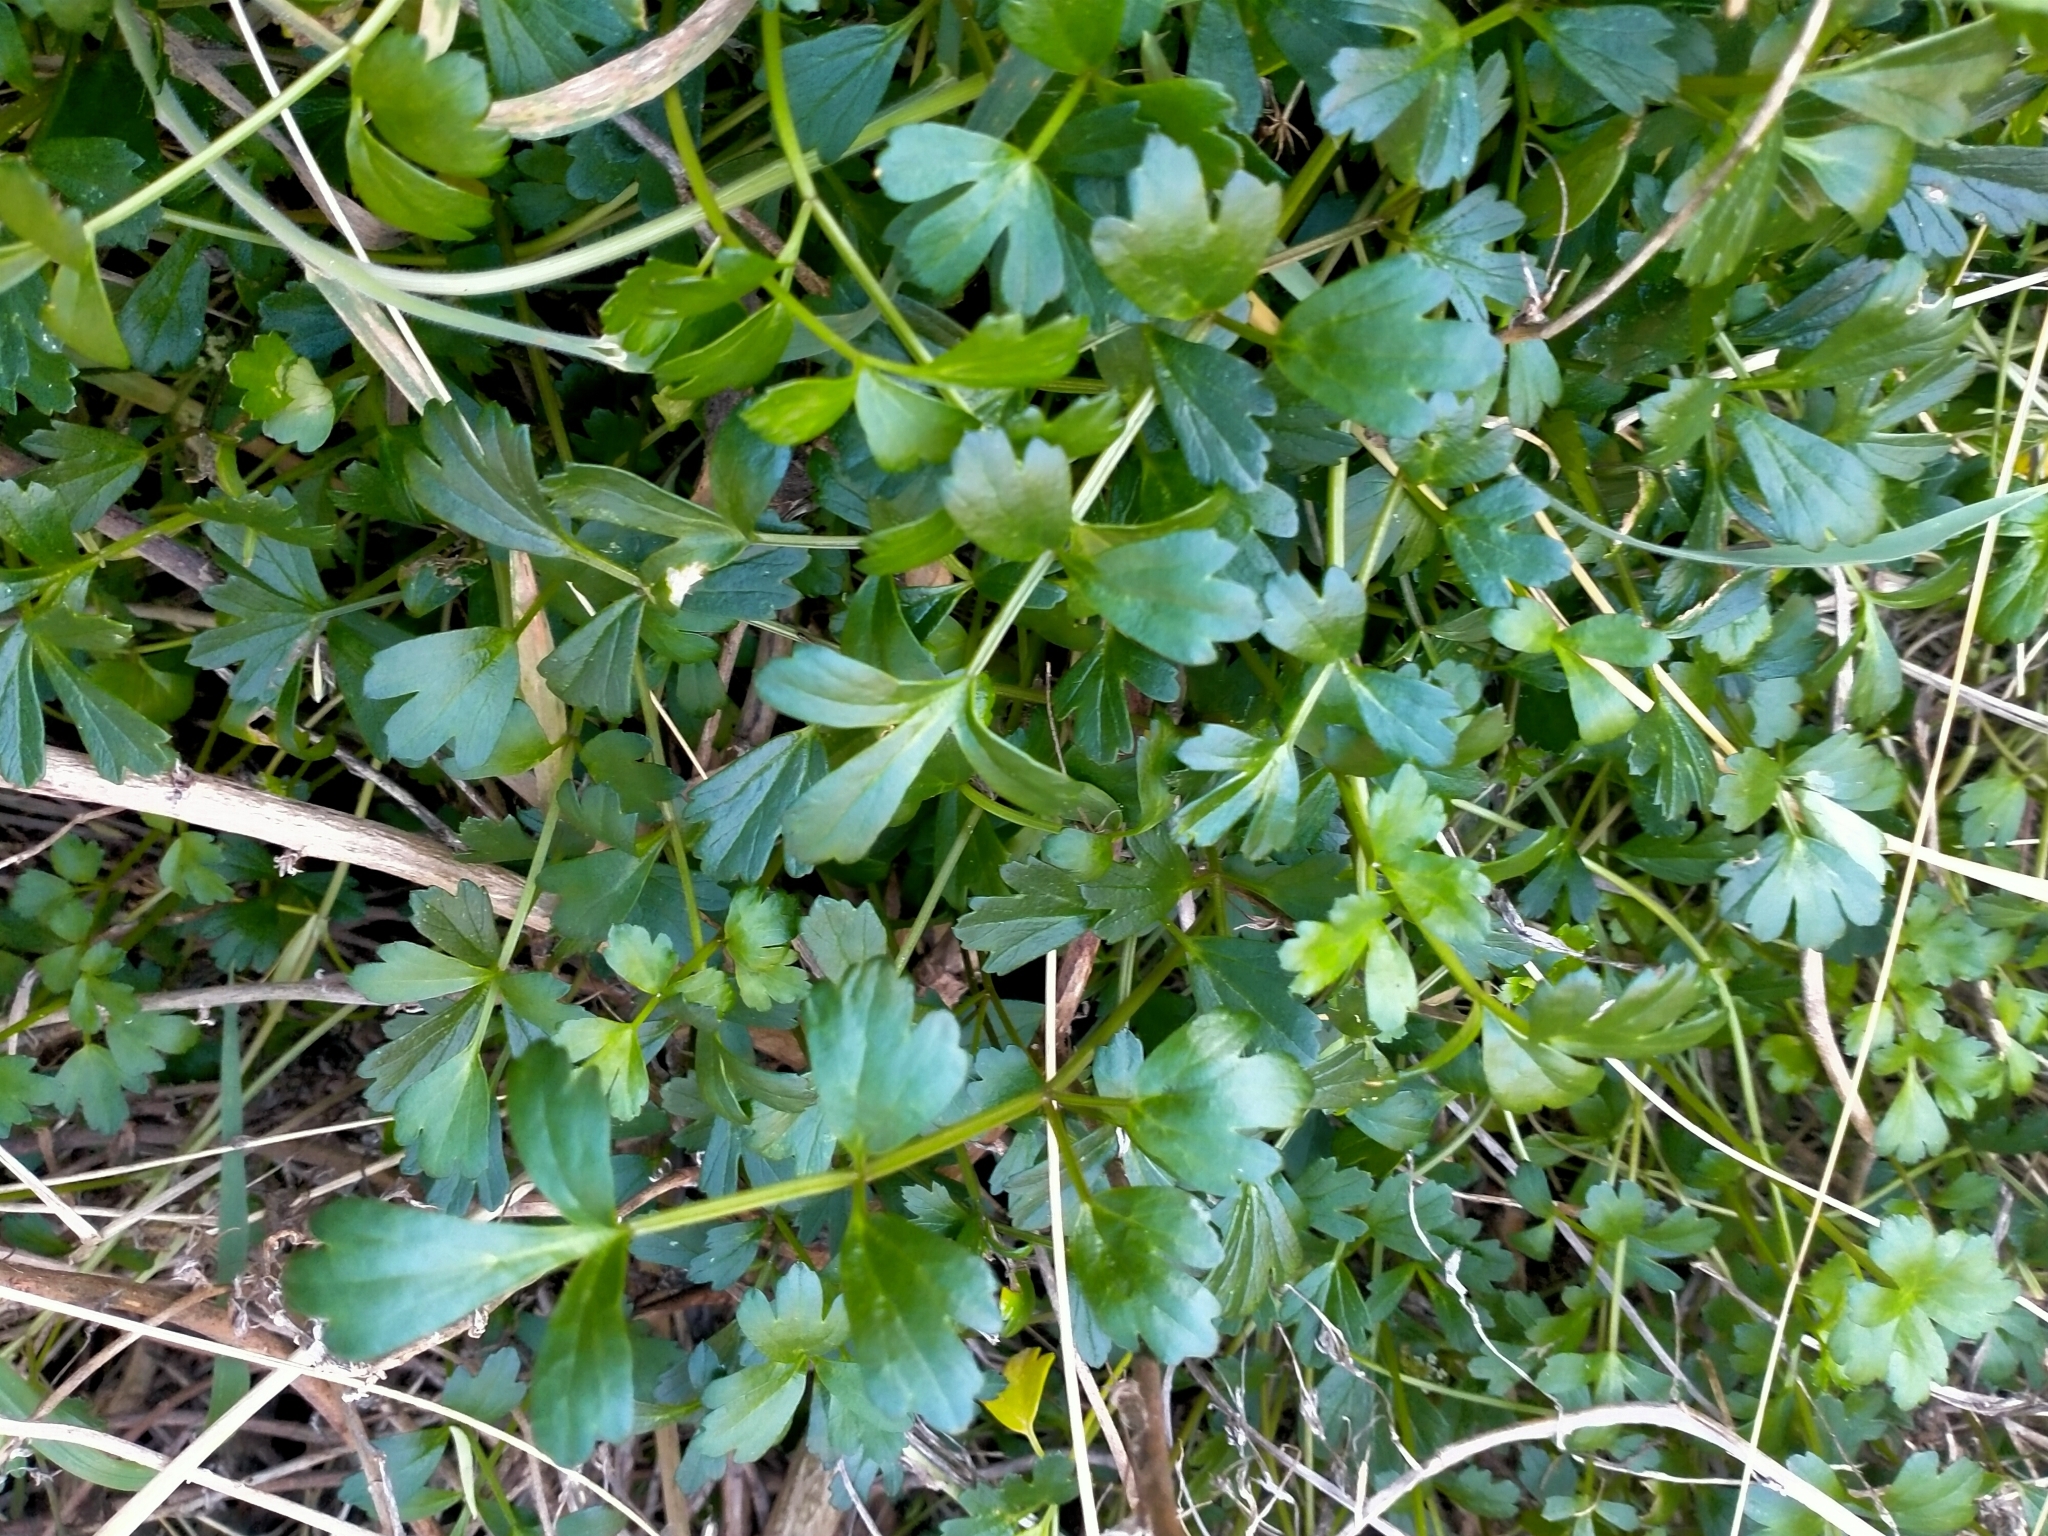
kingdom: Plantae
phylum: Tracheophyta
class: Magnoliopsida
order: Apiales
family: Apiaceae
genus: Apium
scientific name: Apium prostratum
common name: Prostrate marshwort
